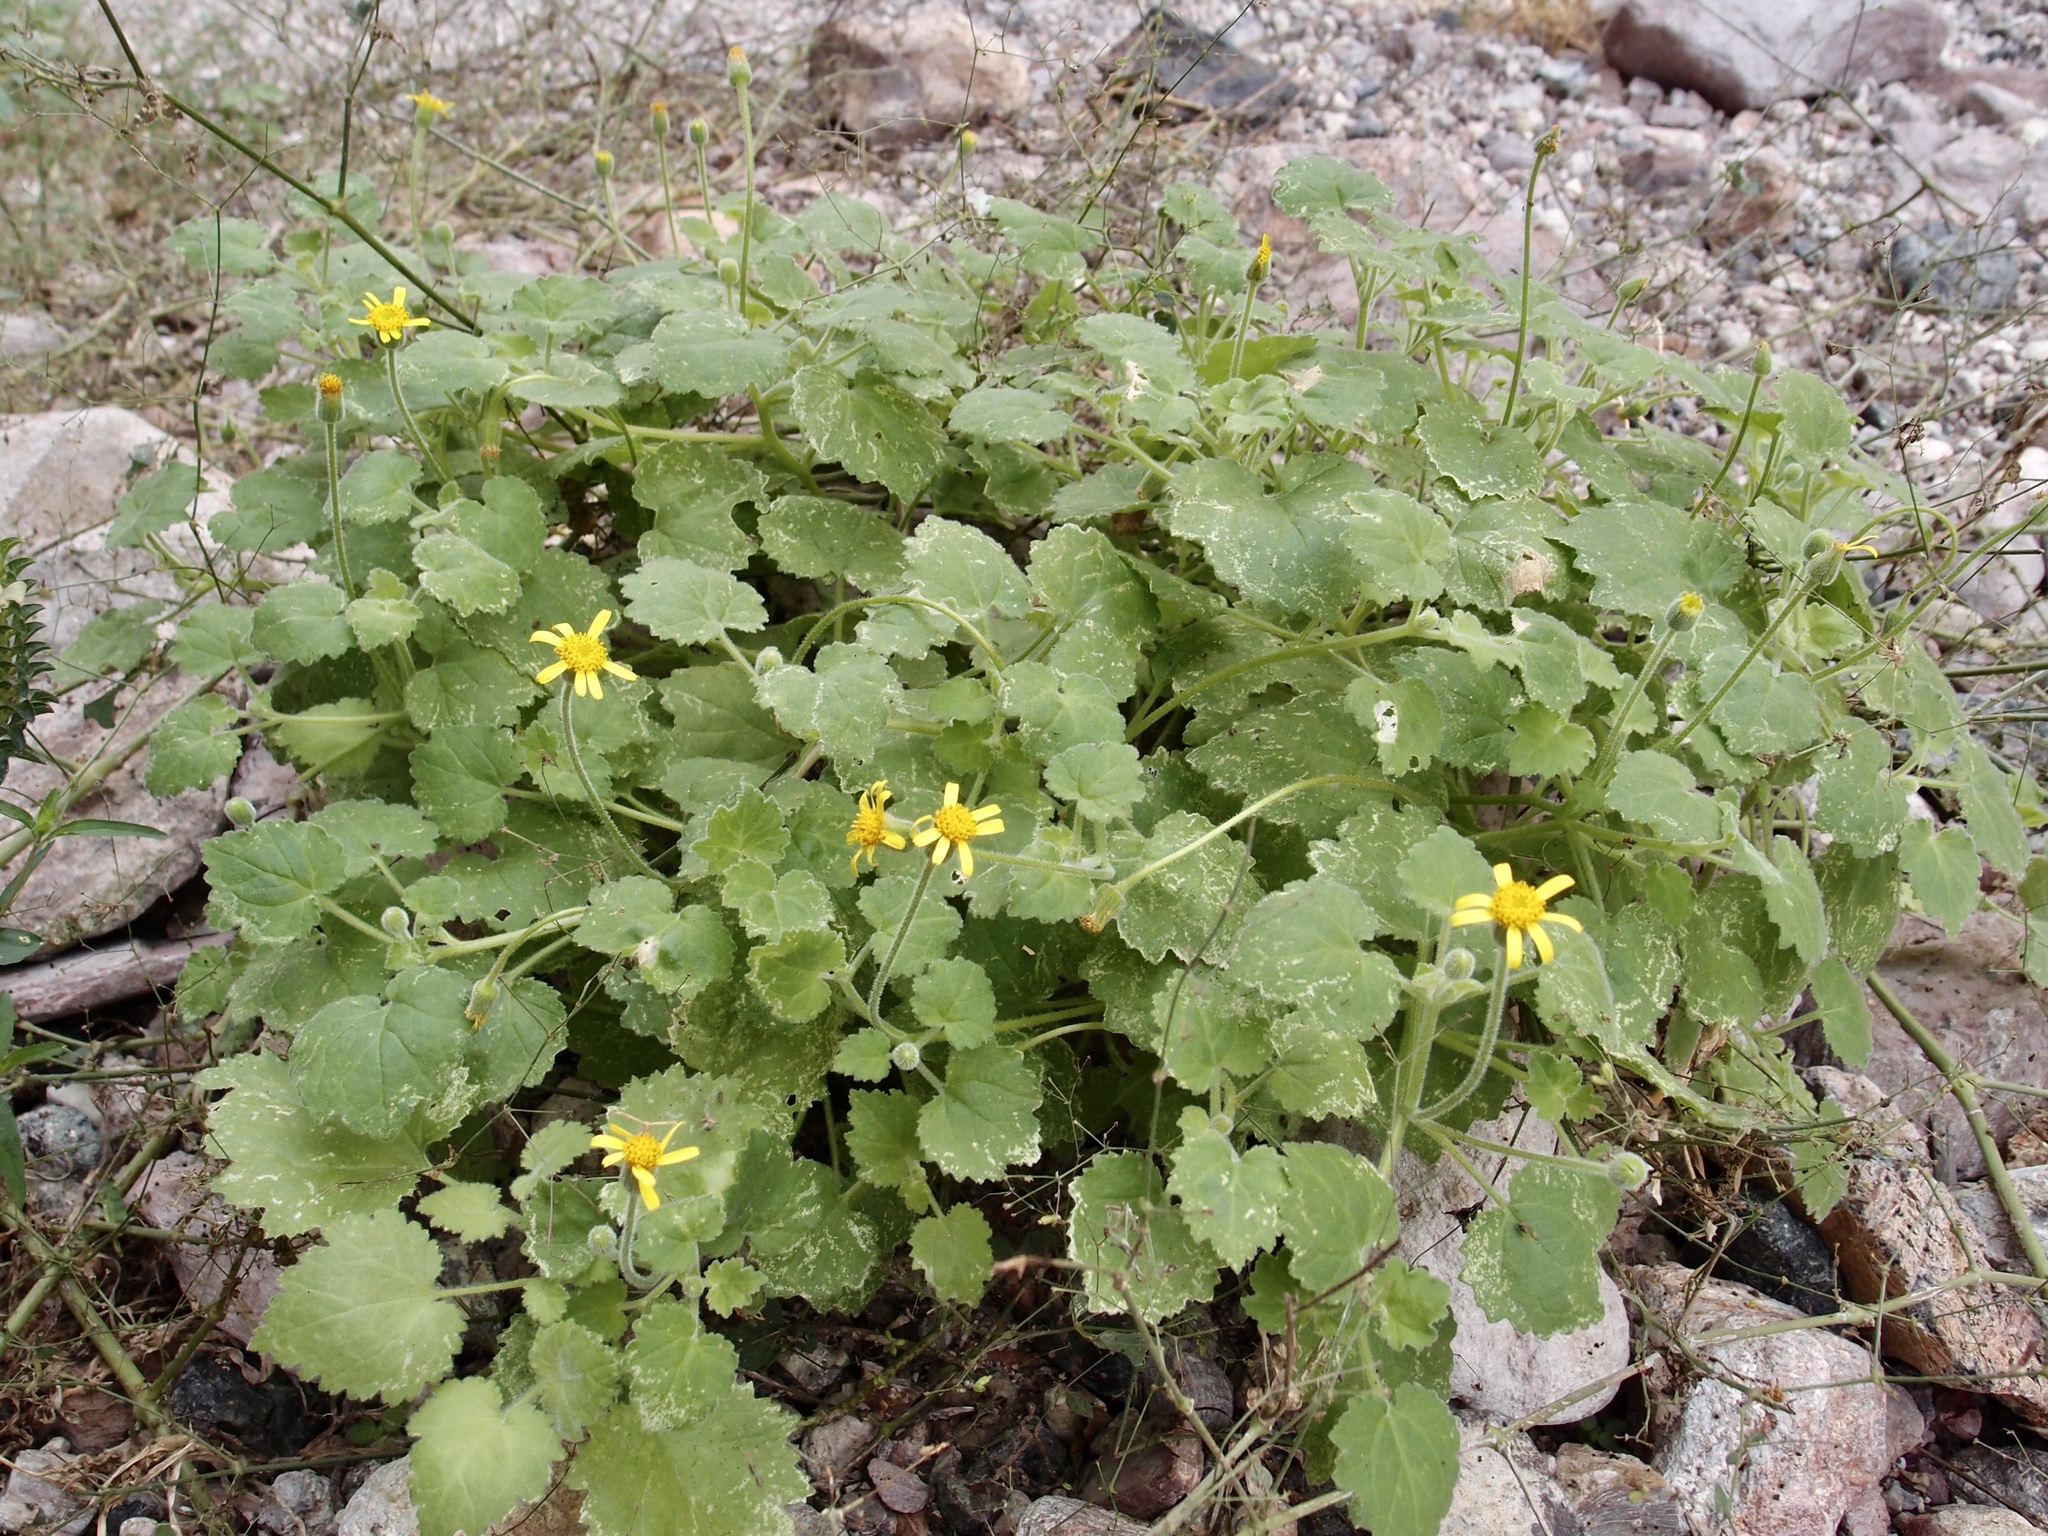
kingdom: Plantae
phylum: Tracheophyta
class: Magnoliopsida
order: Asterales
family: Asteraceae
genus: Laphamia
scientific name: Laphamia sanchezii
